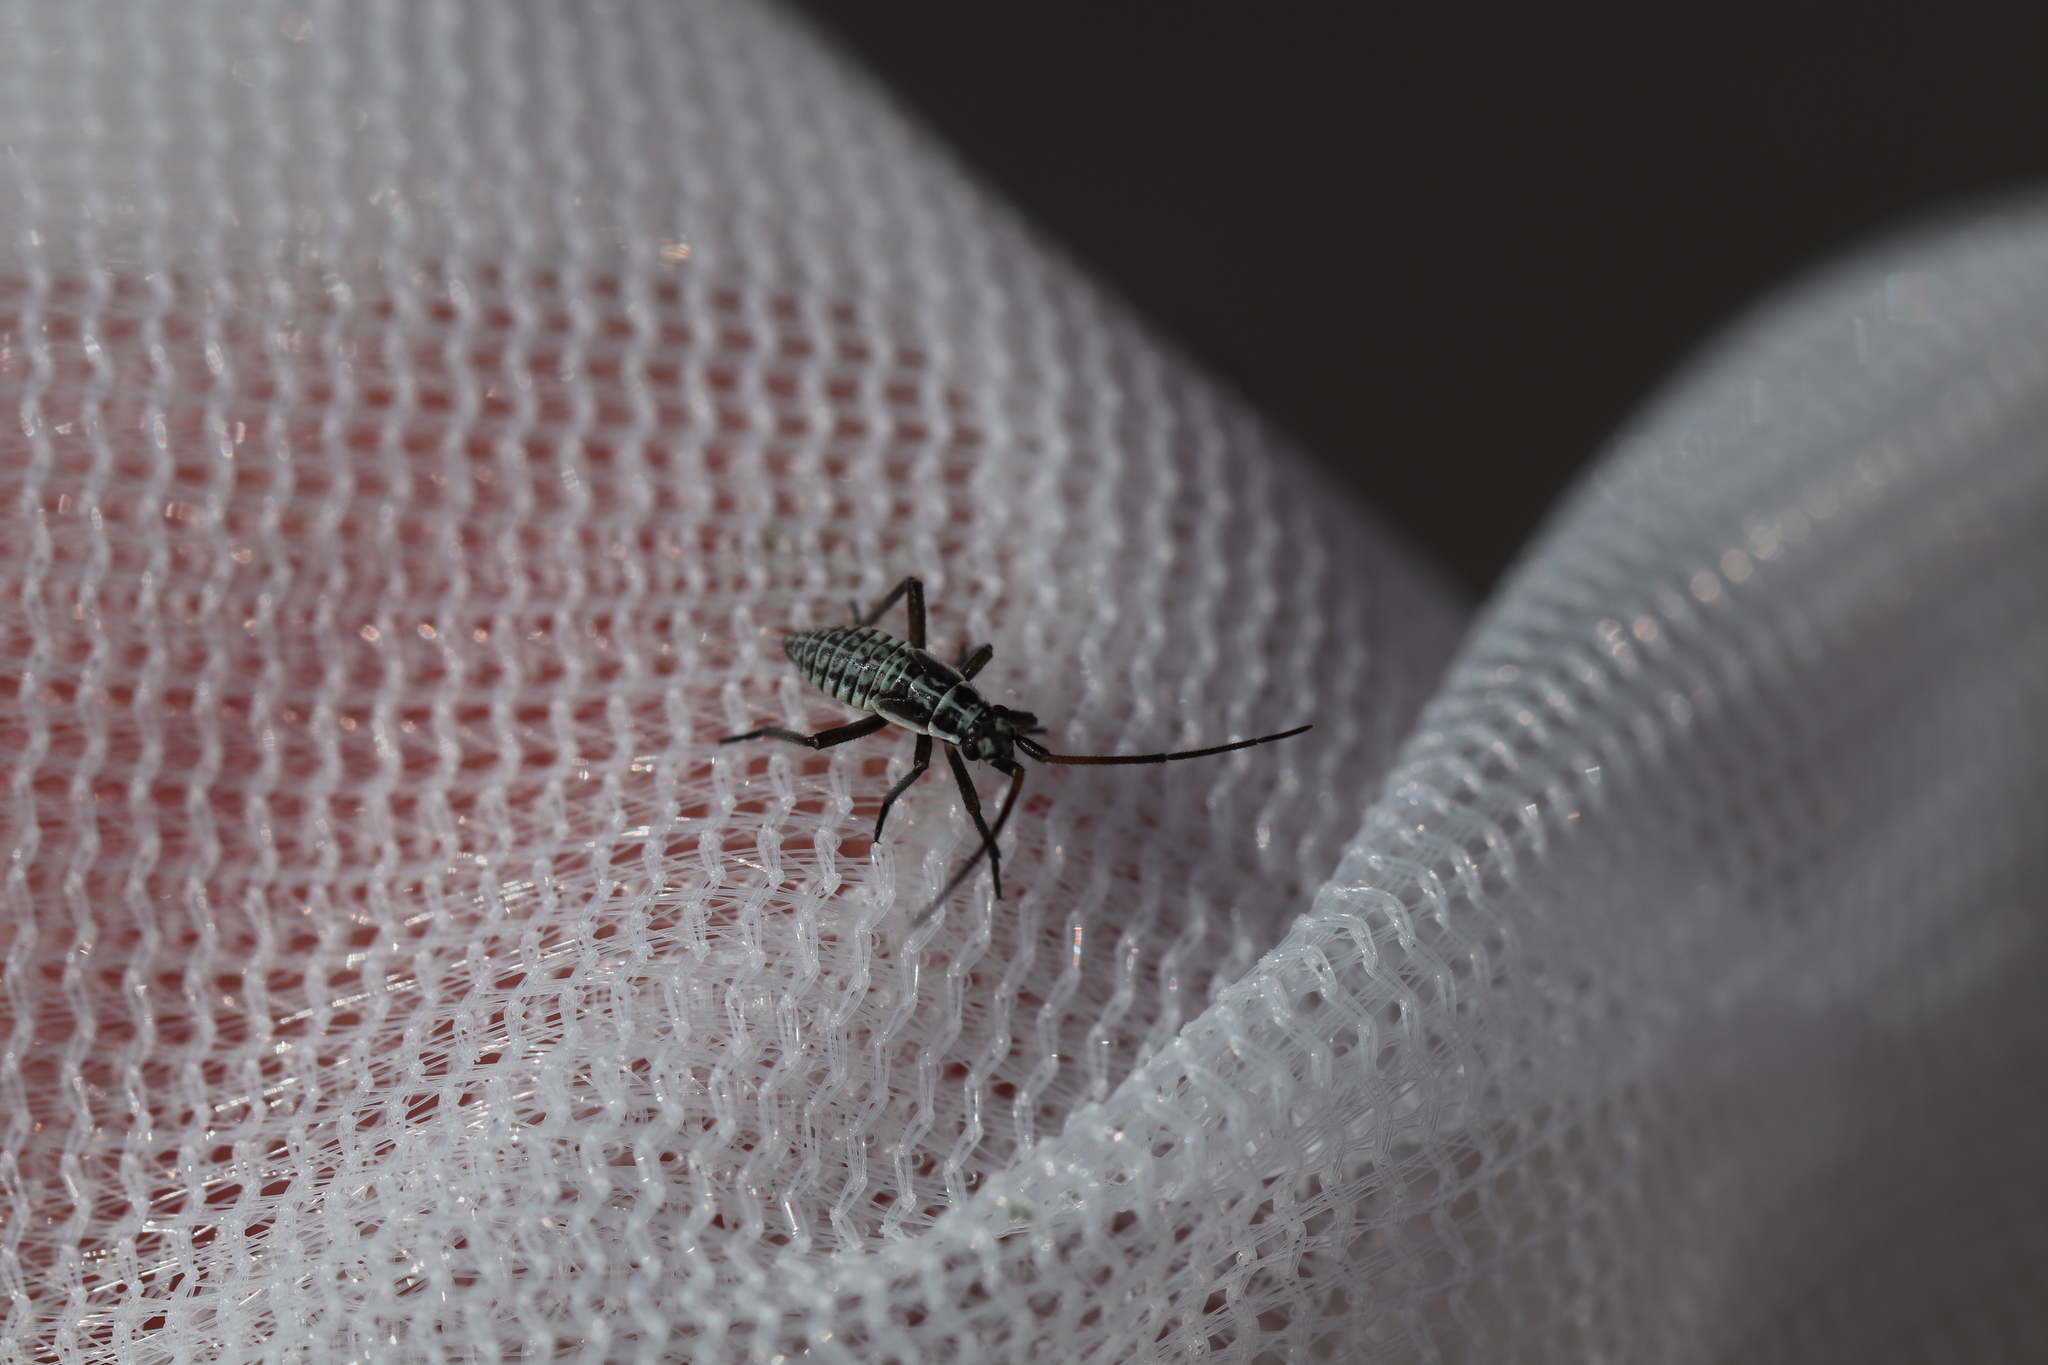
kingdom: Animalia
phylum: Arthropoda
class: Insecta
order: Hemiptera
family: Miridae
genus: Leptopterna
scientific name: Leptopterna dolabrata
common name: Meadow plant bug
